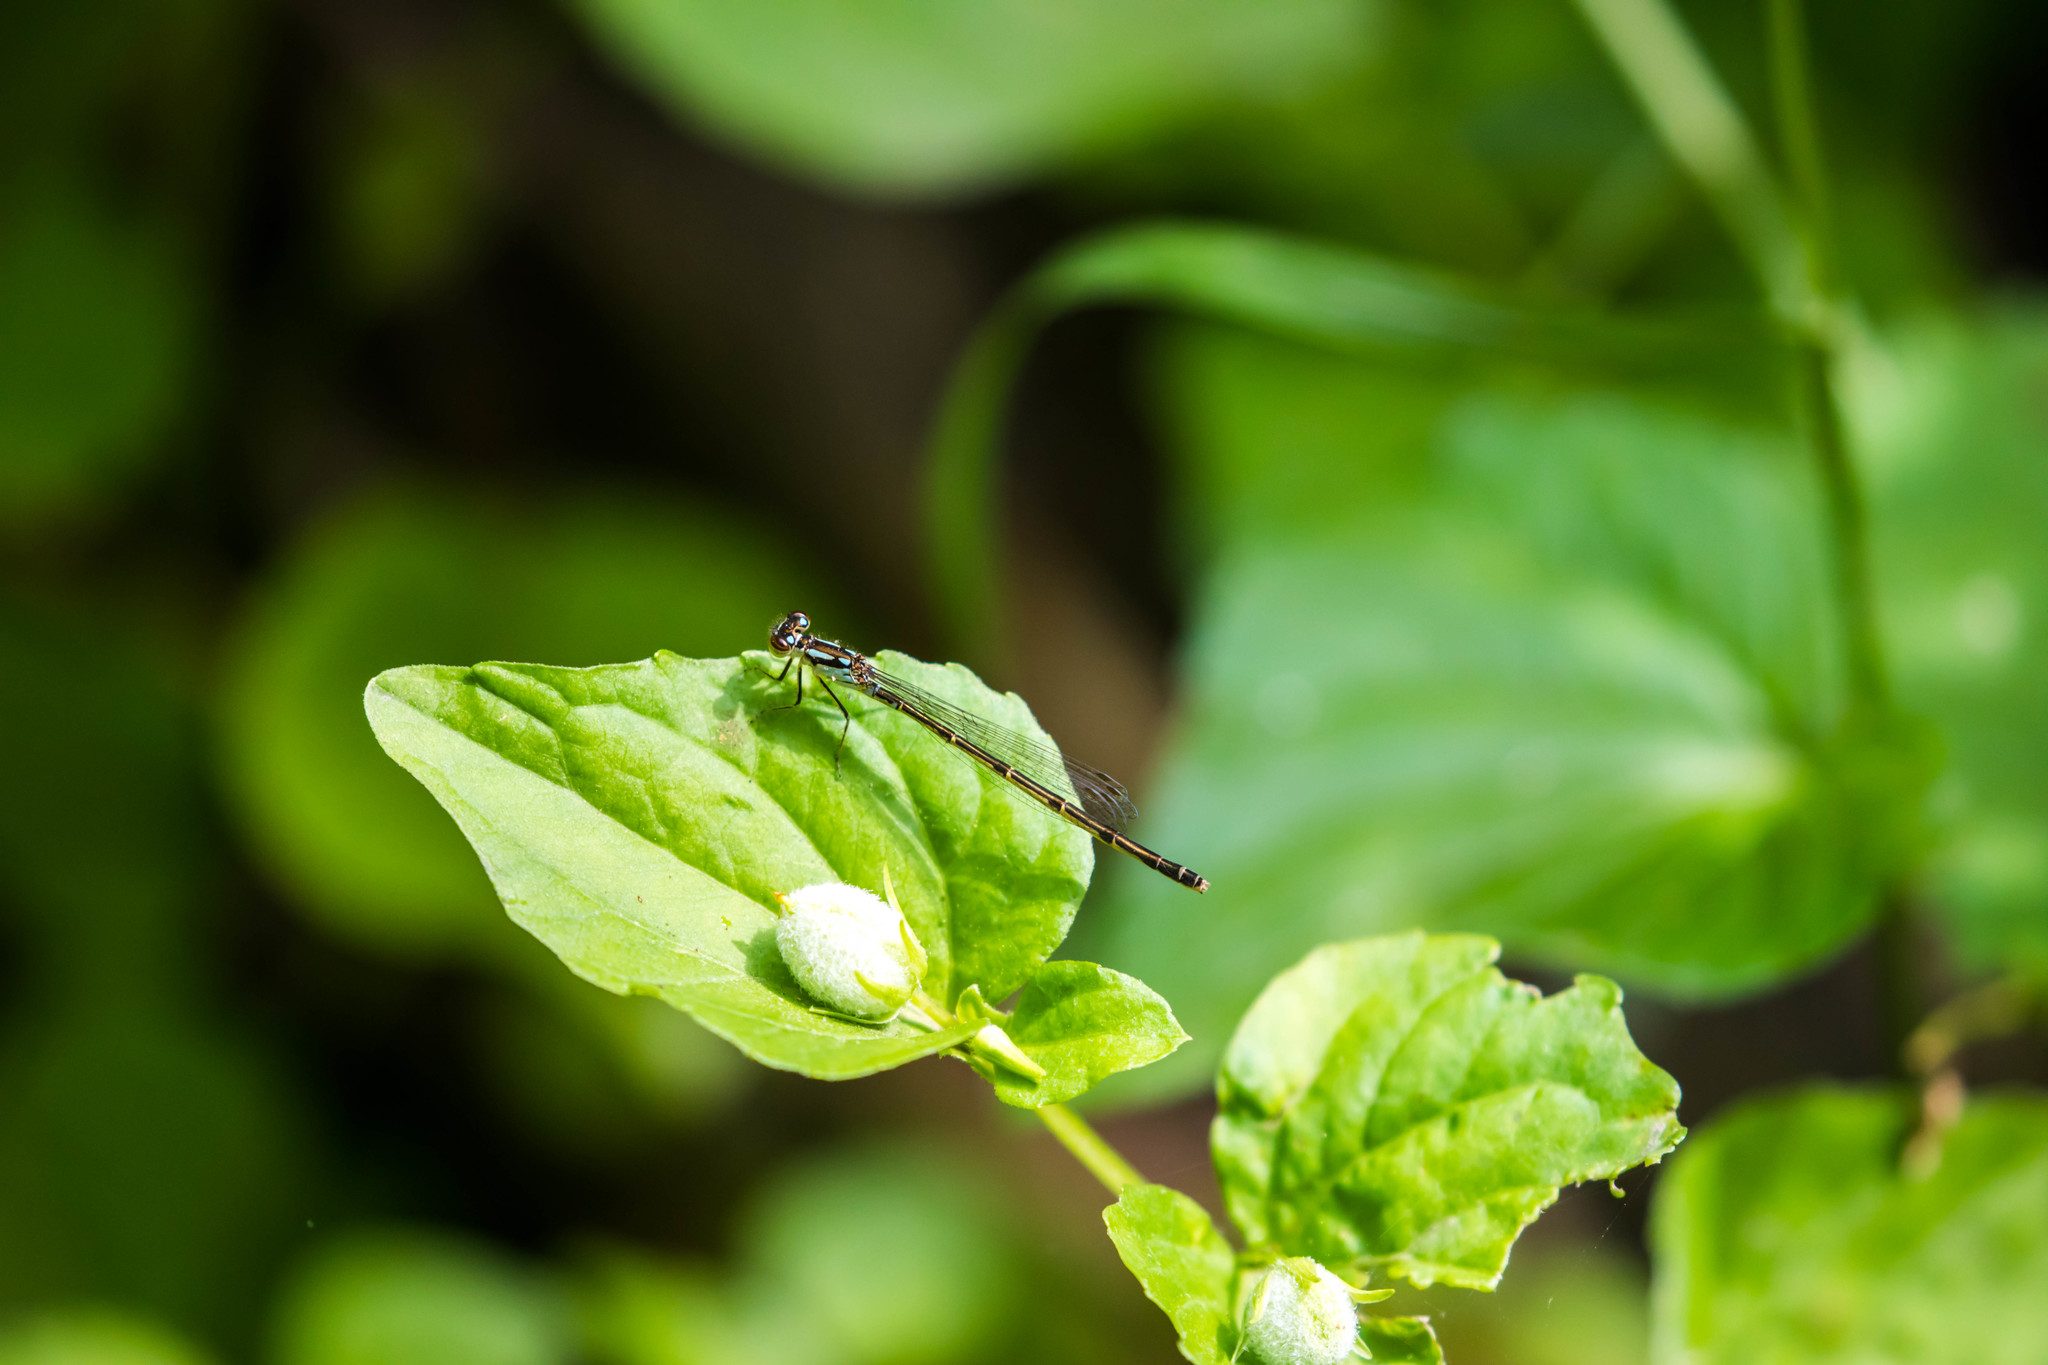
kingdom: Animalia
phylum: Arthropoda
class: Insecta
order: Odonata
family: Coenagrionidae
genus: Ischnura
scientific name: Ischnura posita
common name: Fragile forktail
